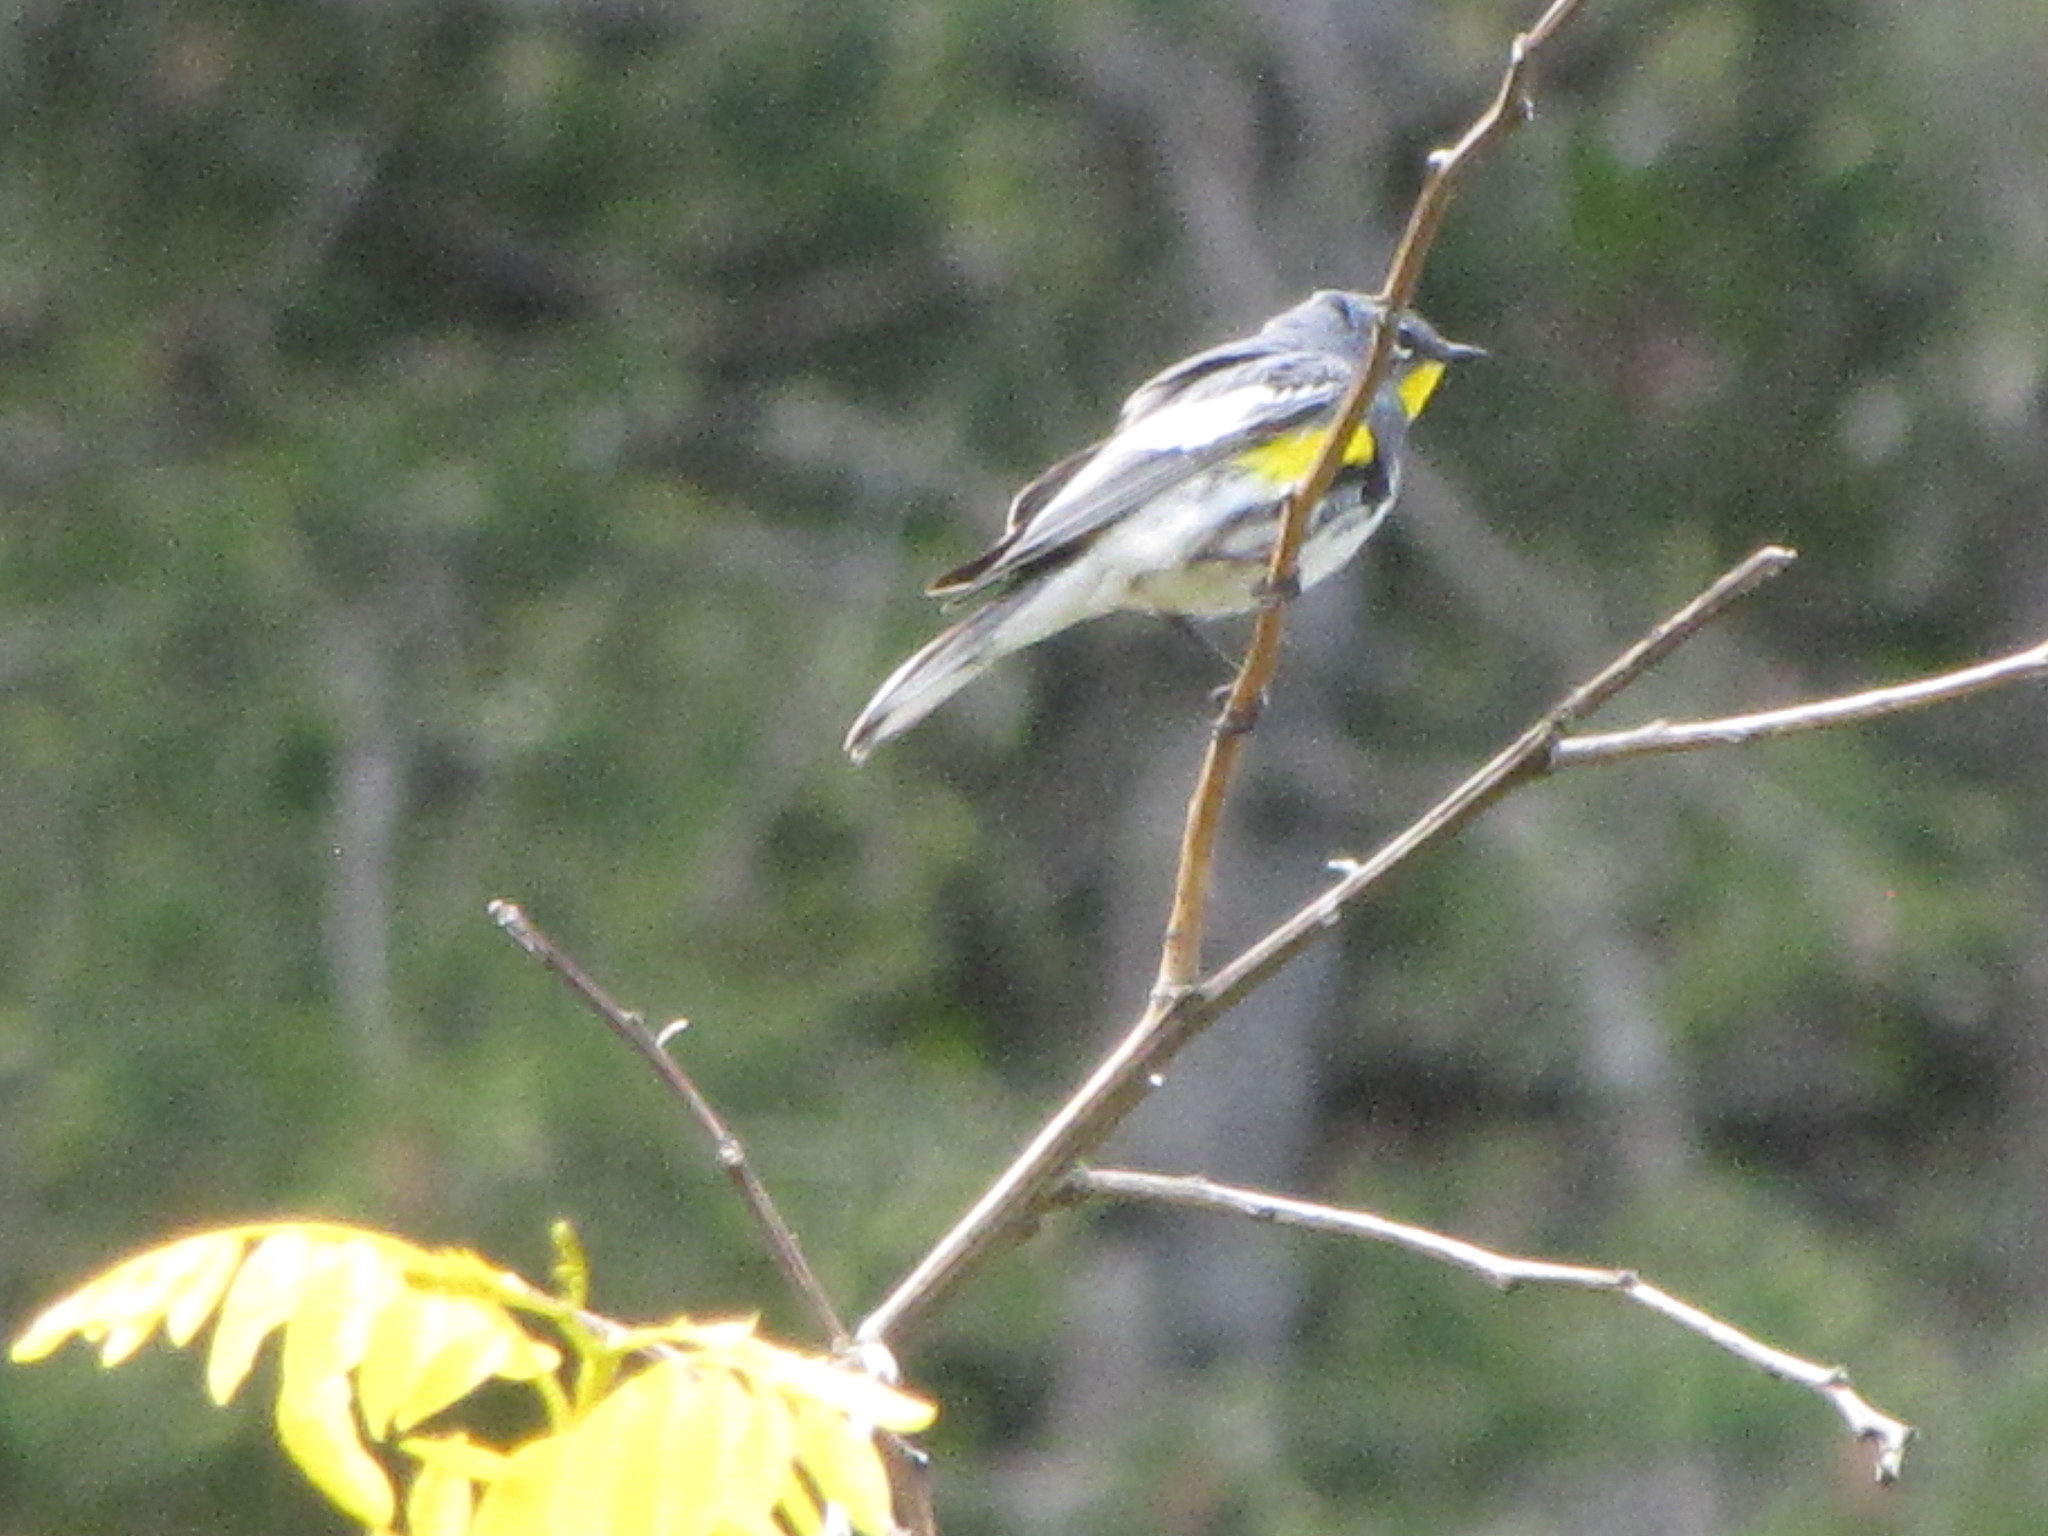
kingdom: Animalia
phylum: Chordata
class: Aves
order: Passeriformes
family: Parulidae
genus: Setophaga
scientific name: Setophaga auduboni
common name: Audubon's warbler
